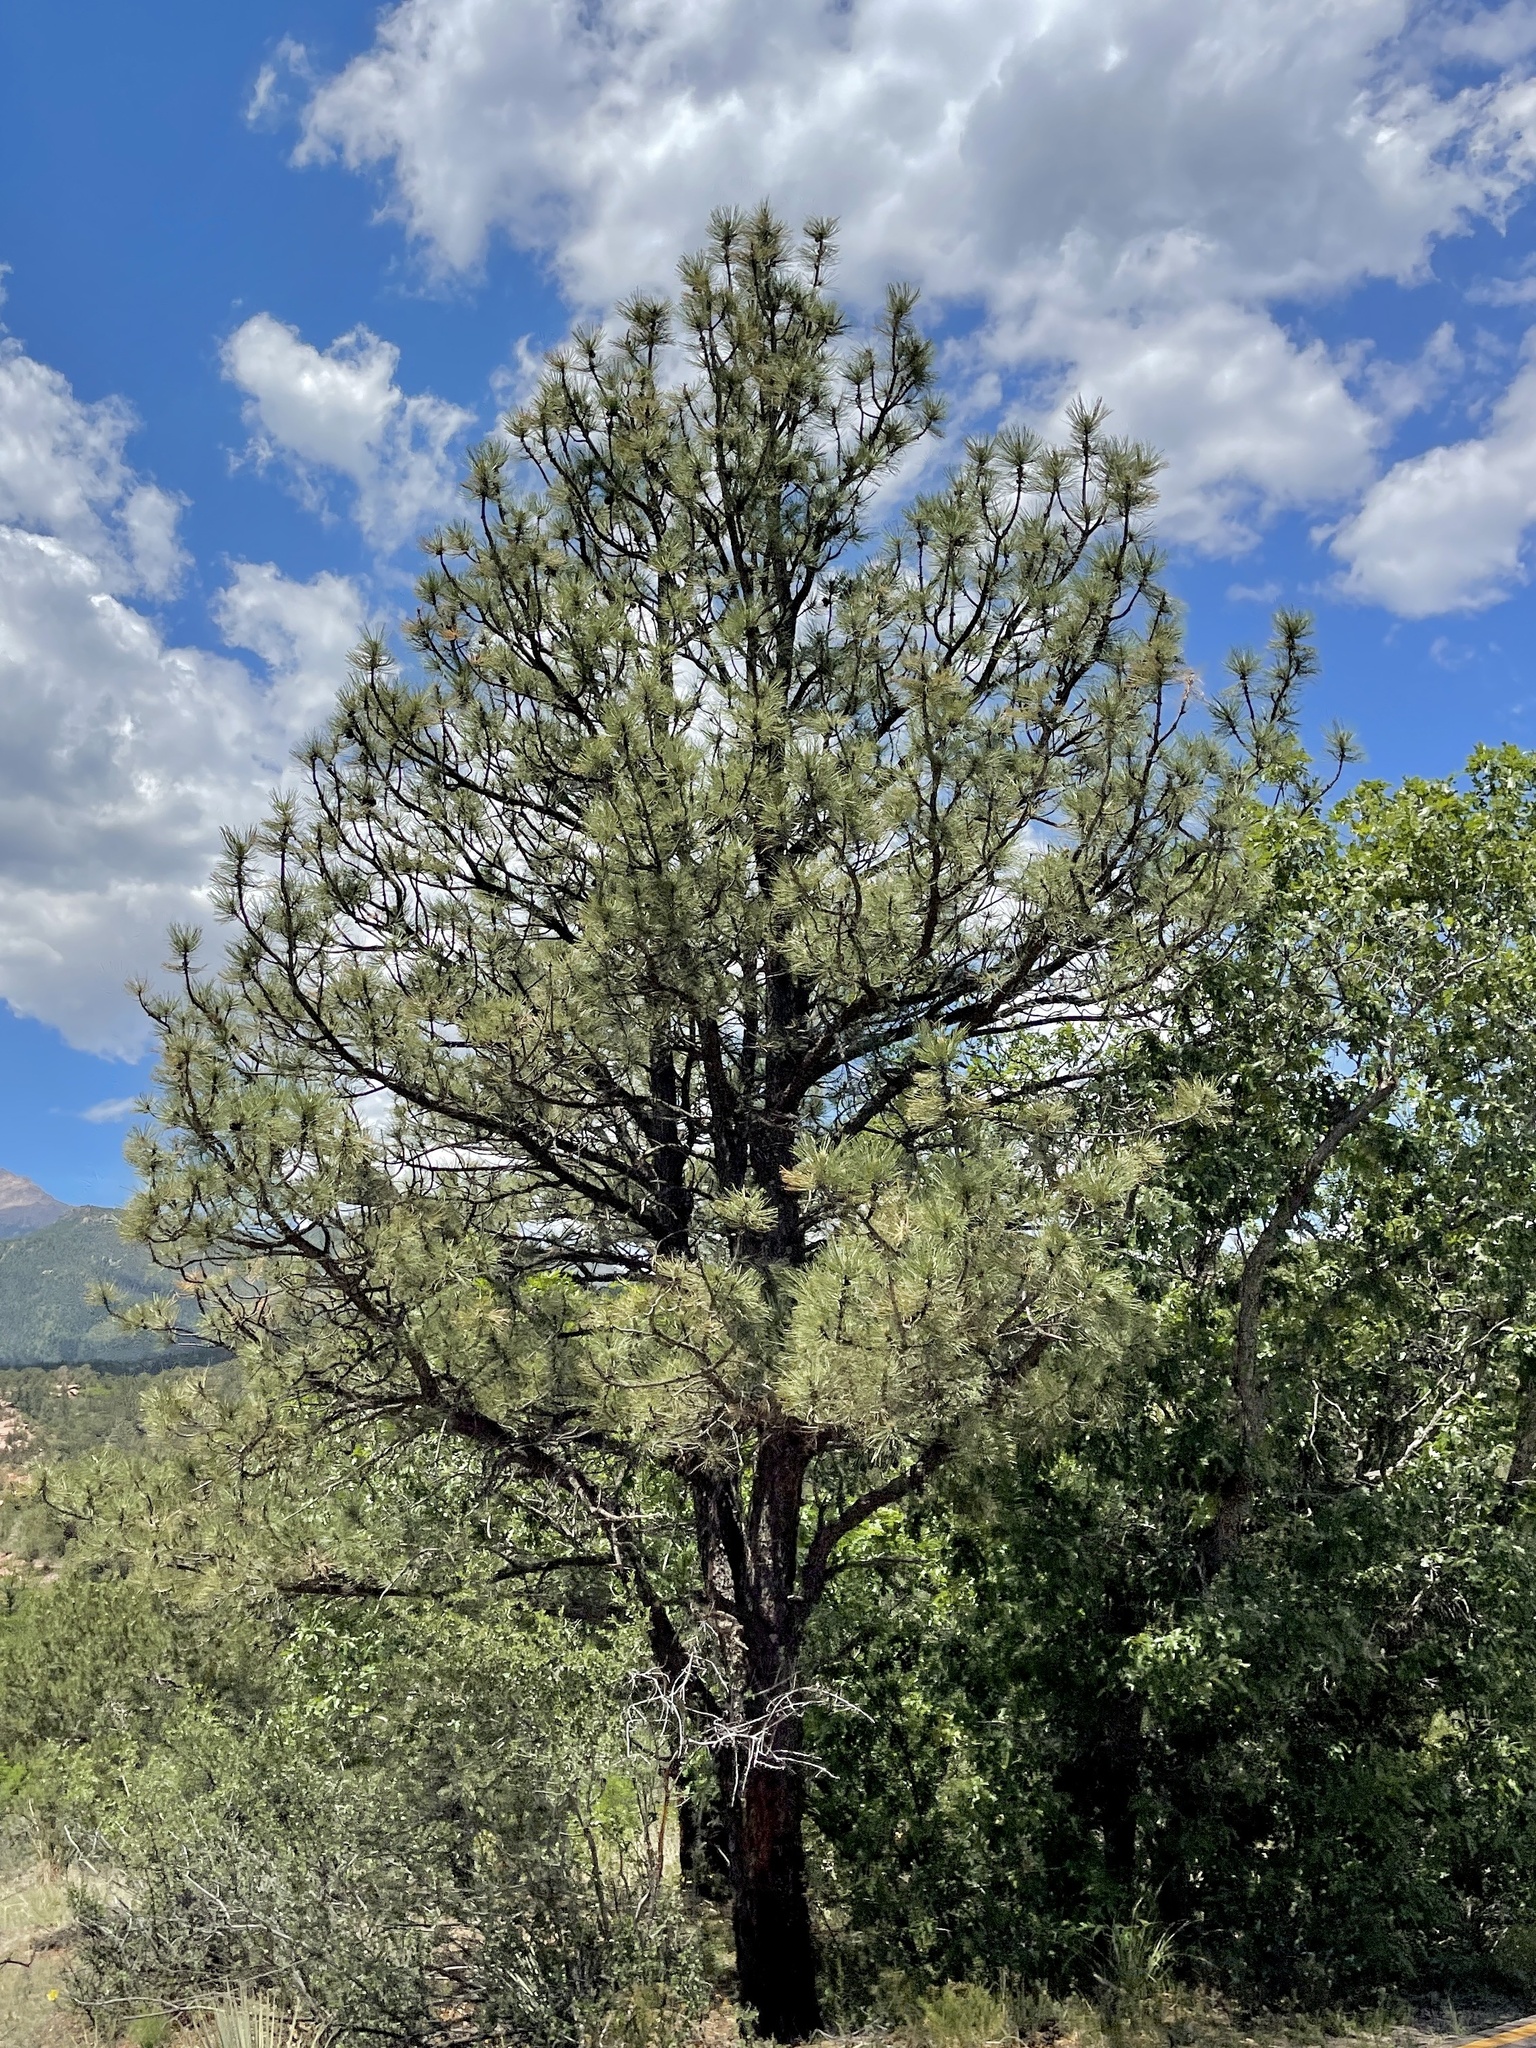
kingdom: Plantae
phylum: Tracheophyta
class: Pinopsida
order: Pinales
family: Pinaceae
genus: Pinus
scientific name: Pinus ponderosa
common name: Western yellow-pine
